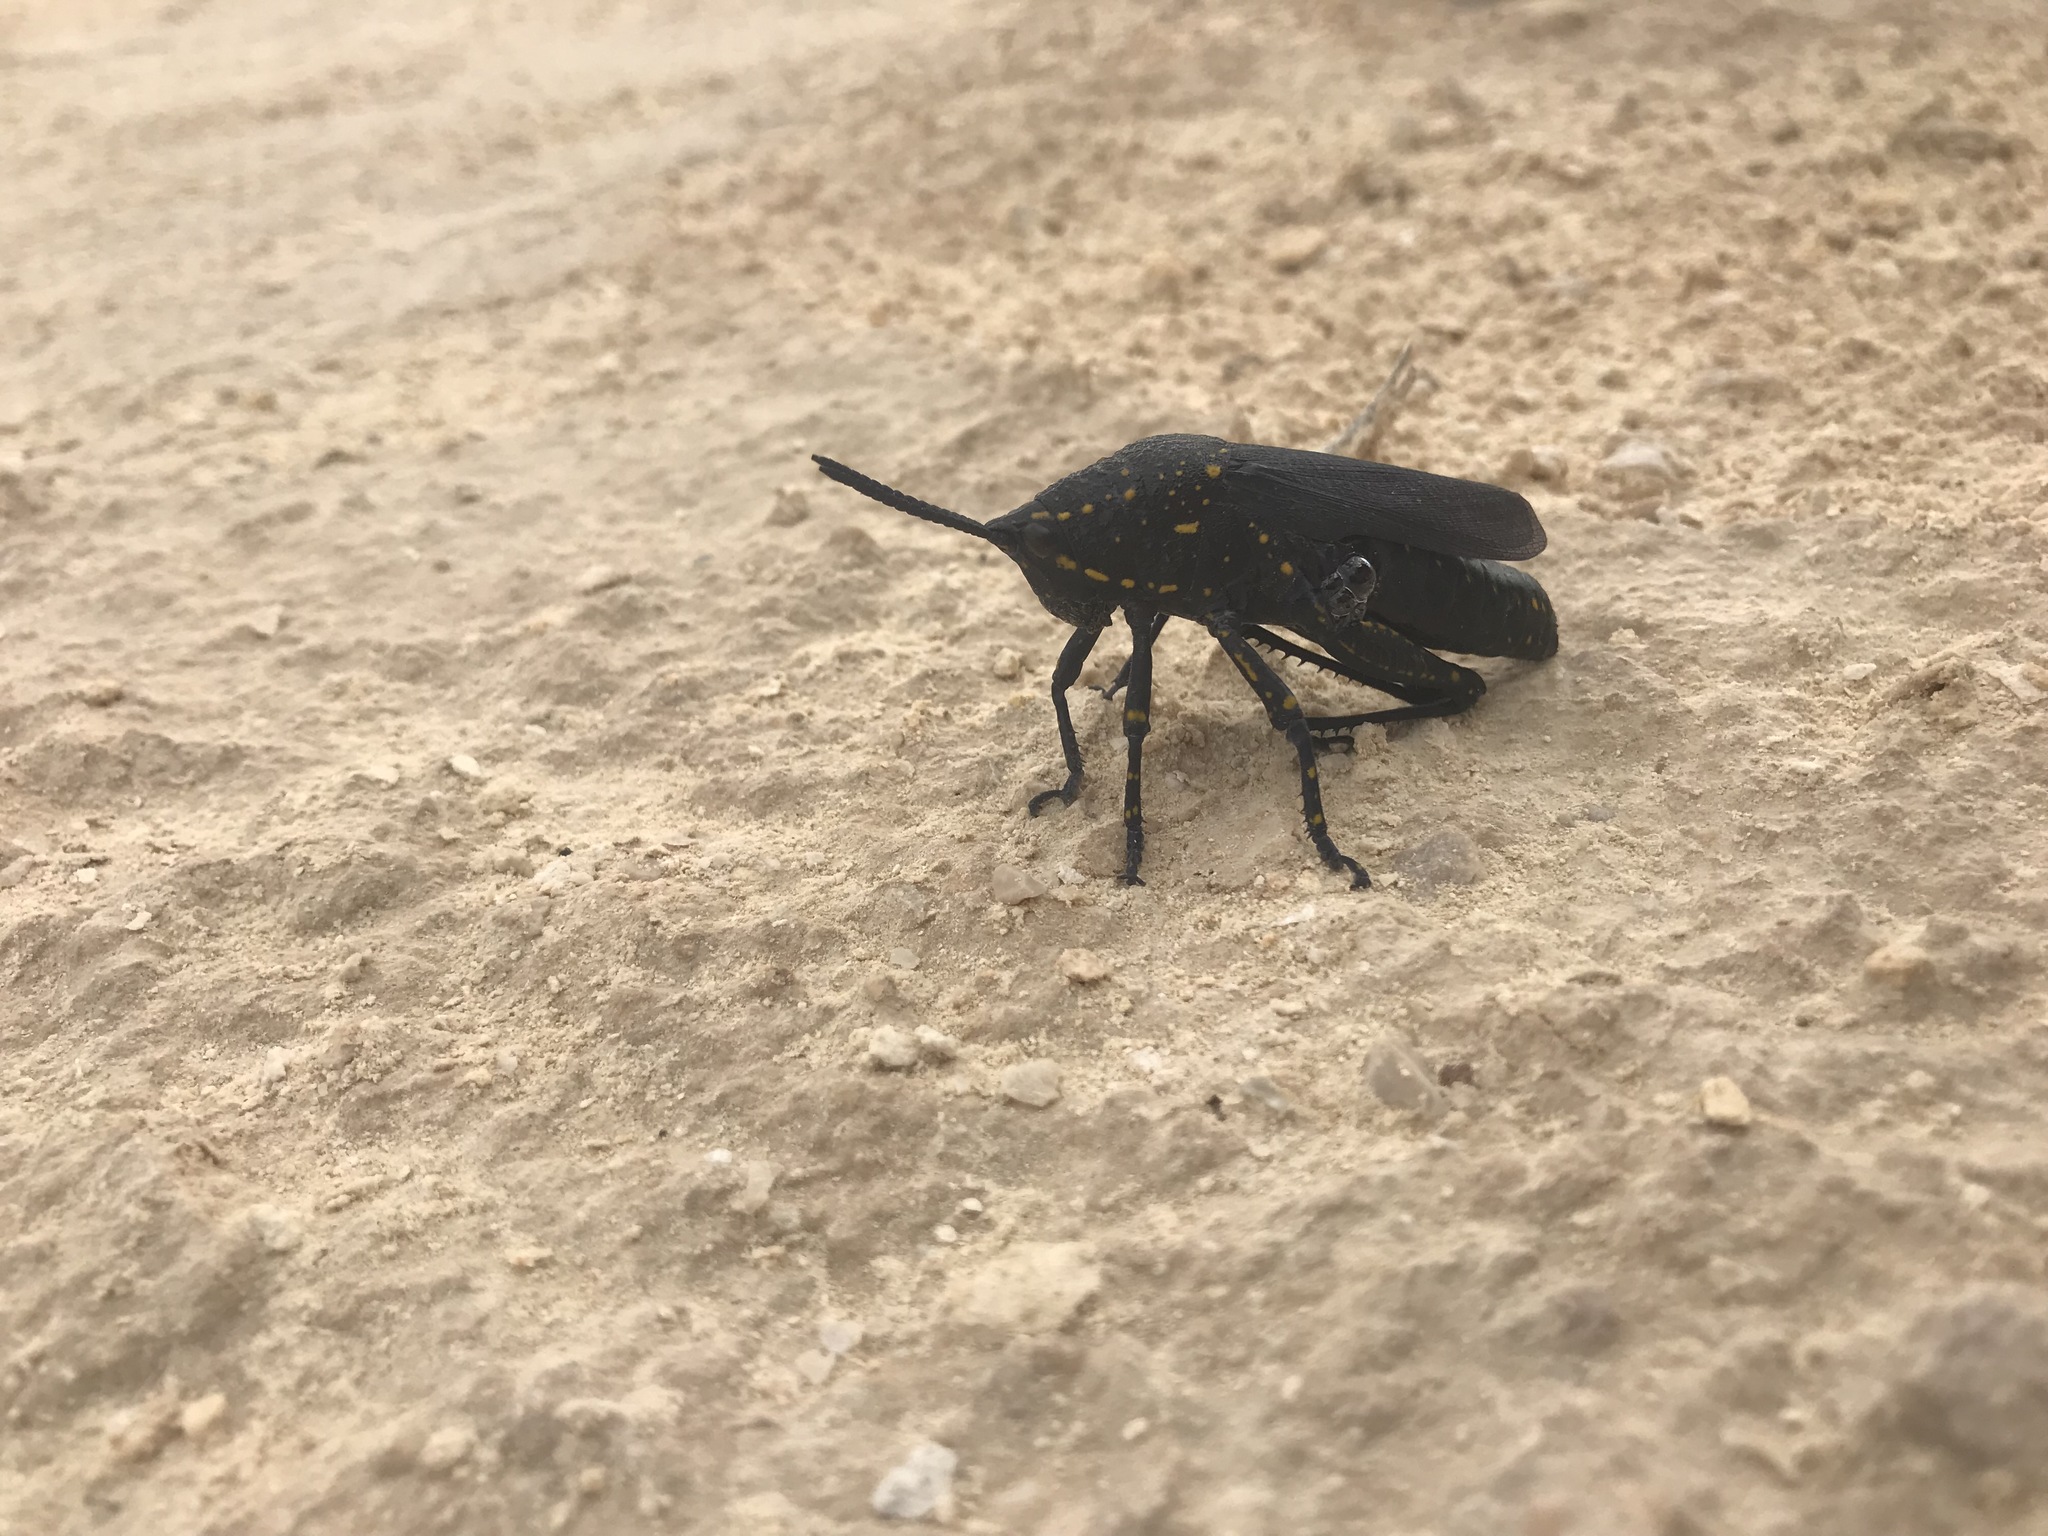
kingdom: Animalia
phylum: Arthropoda
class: Insecta
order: Orthoptera
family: Pyrgomorphidae
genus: Poekilocerus
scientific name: Poekilocerus bufonius
